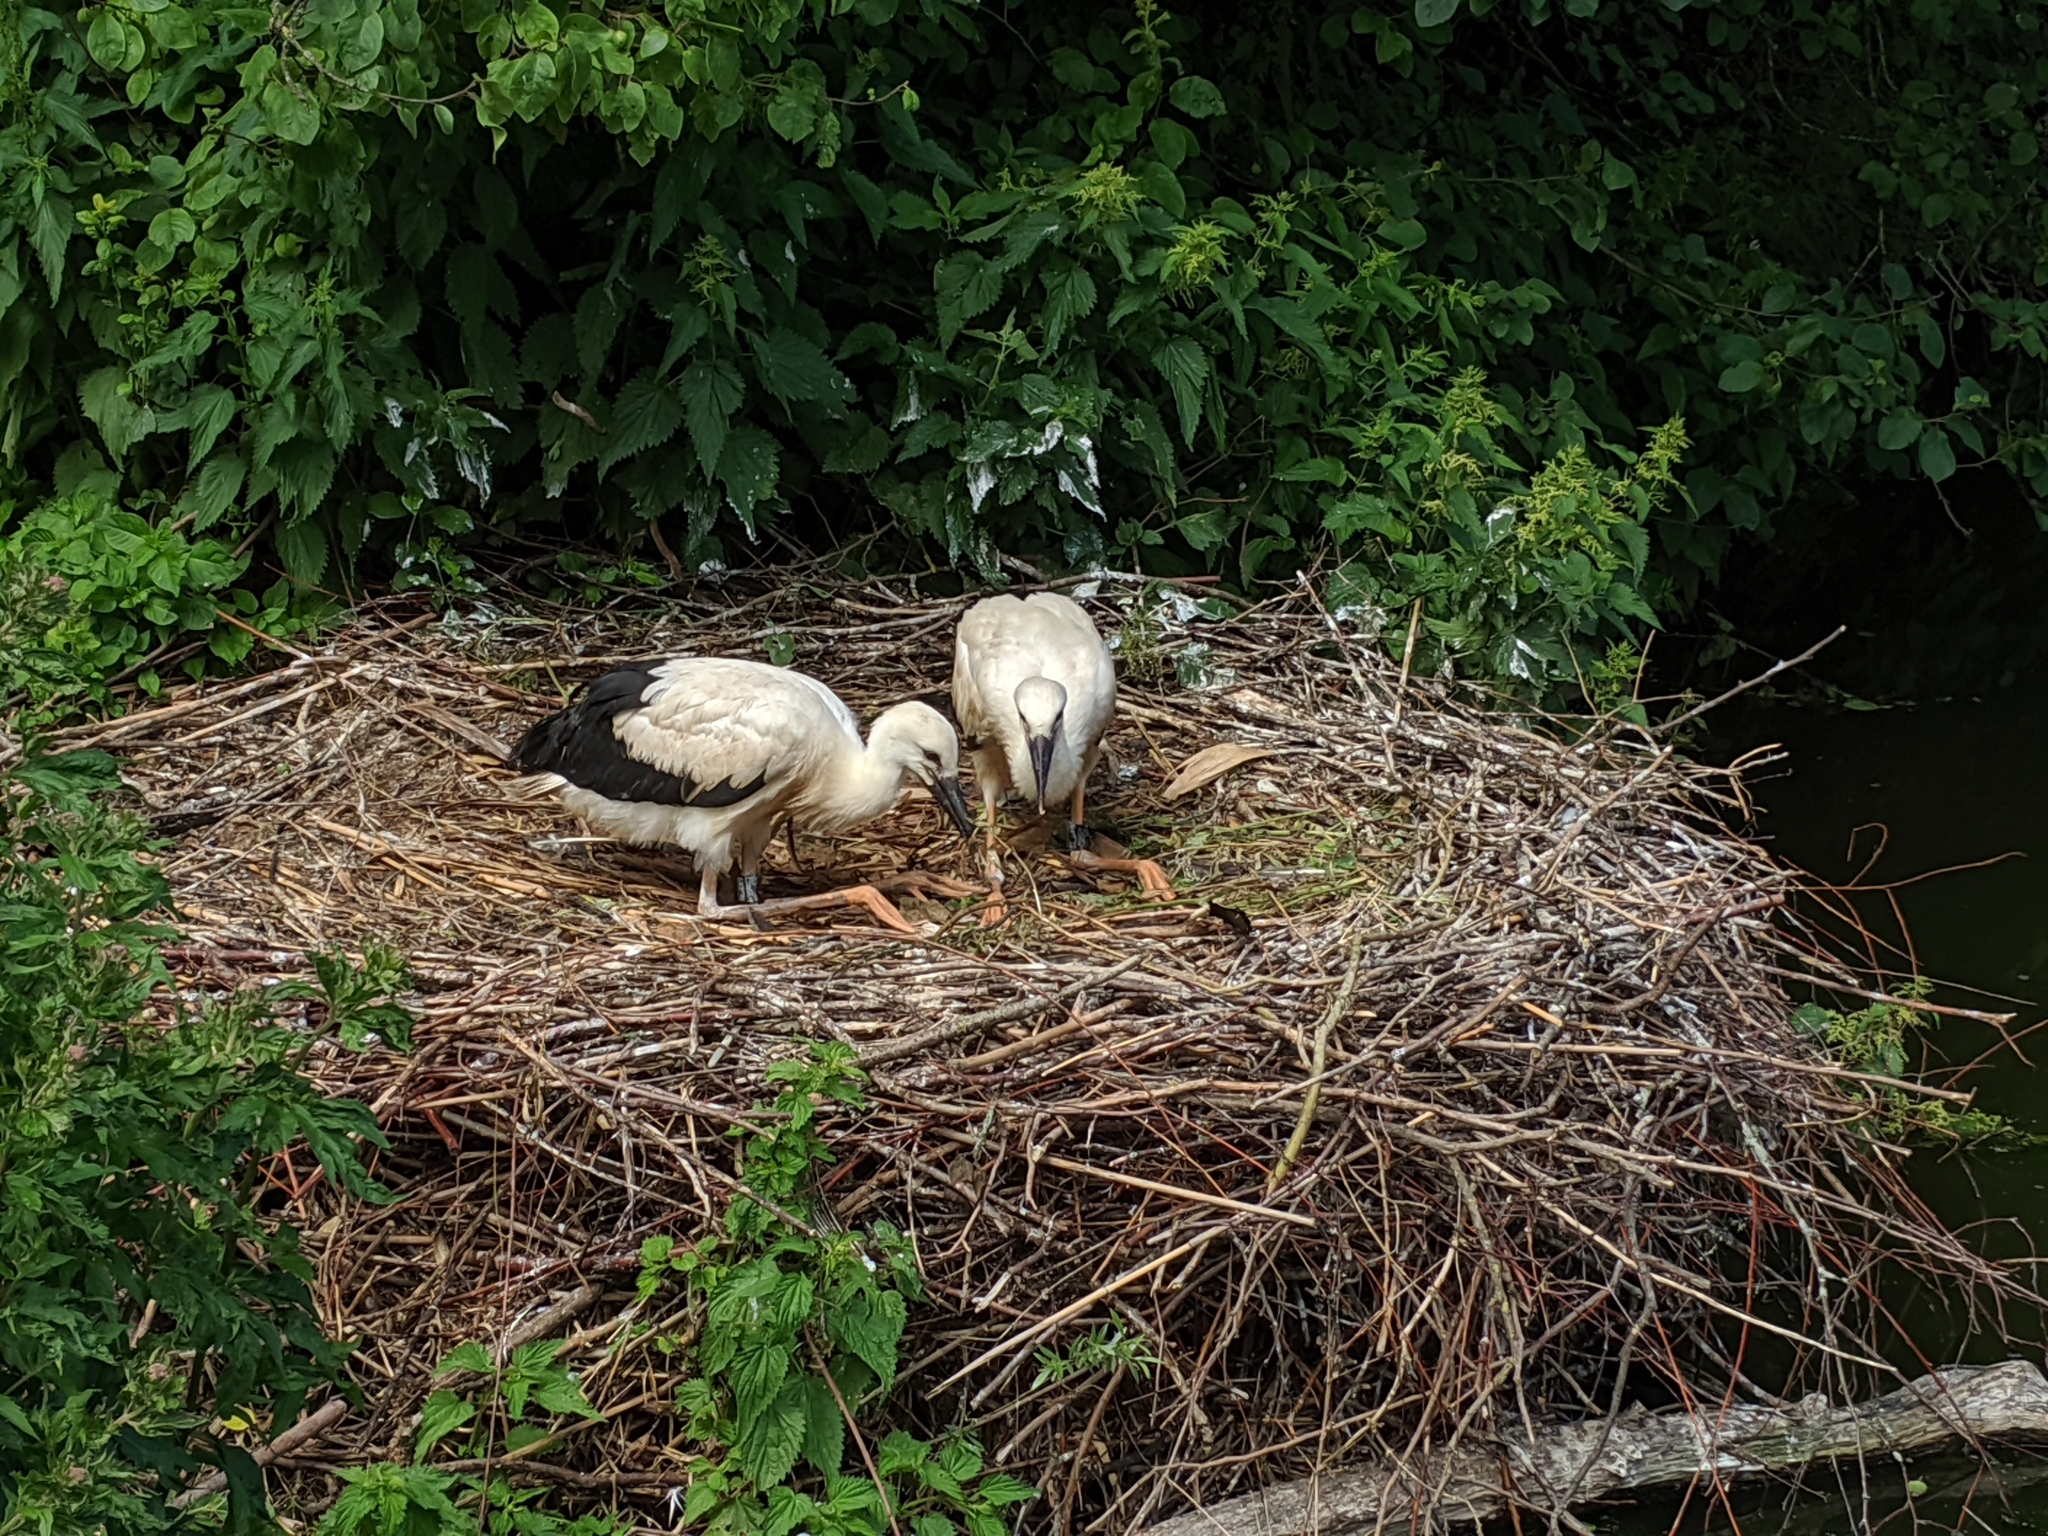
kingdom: Animalia
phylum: Chordata
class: Aves
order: Ciconiiformes
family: Ciconiidae
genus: Ciconia
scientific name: Ciconia ciconia
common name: White stork
